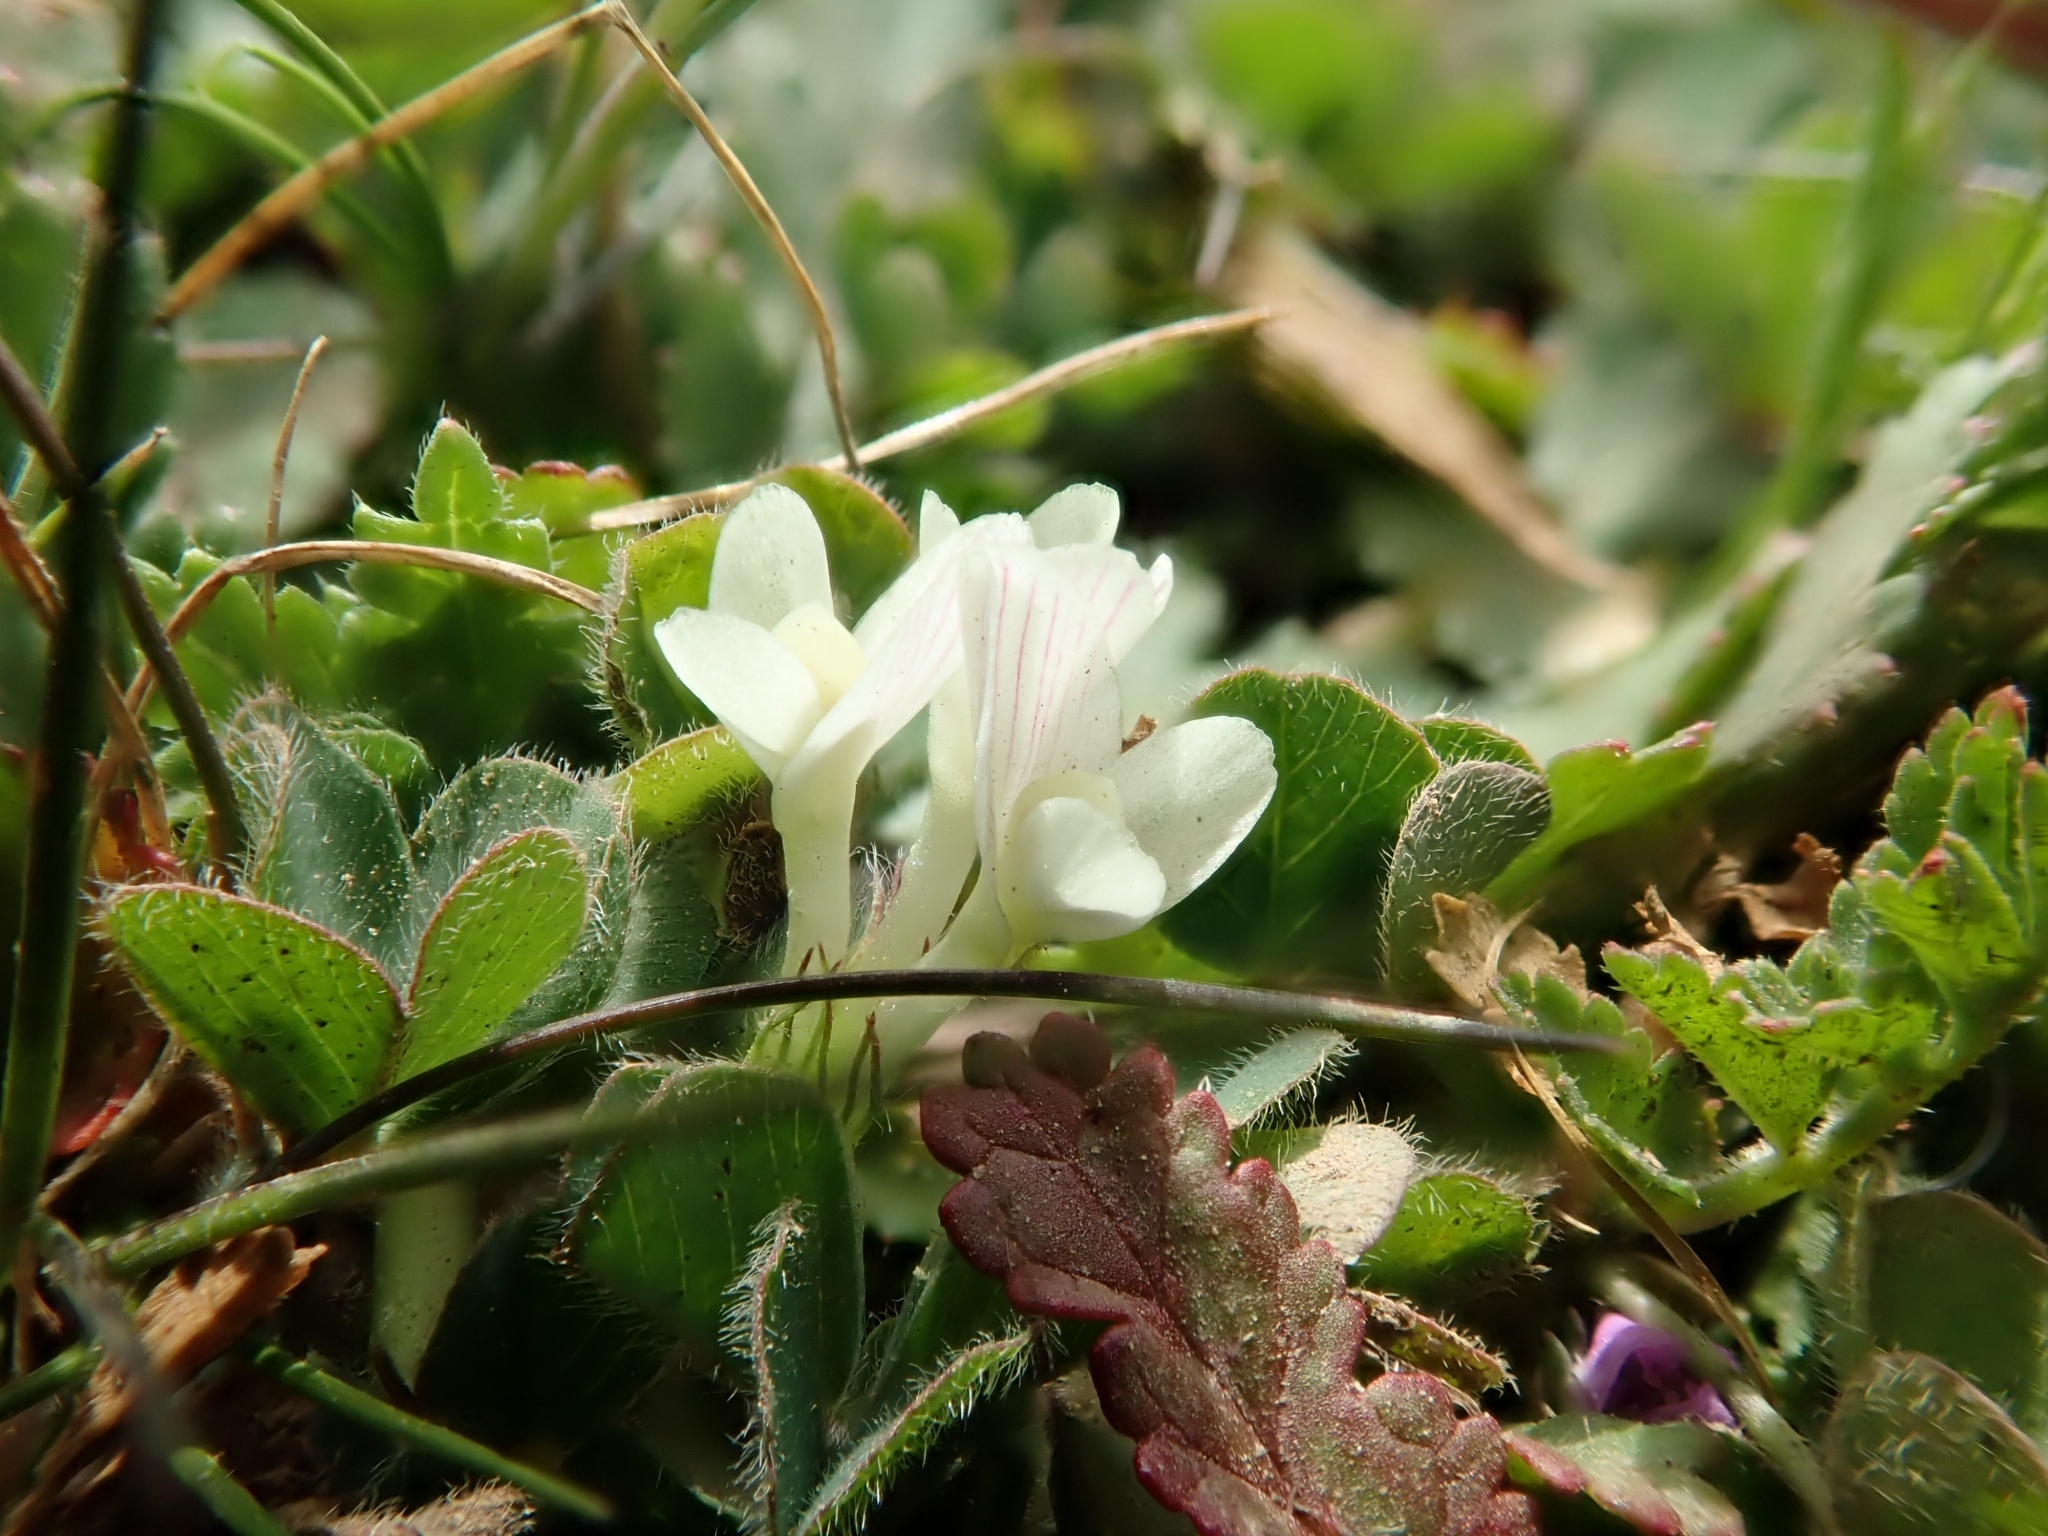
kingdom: Plantae
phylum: Tracheophyta
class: Magnoliopsida
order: Fabales
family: Fabaceae
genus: Trifolium
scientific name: Trifolium subterraneum
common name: Subterranean clover
